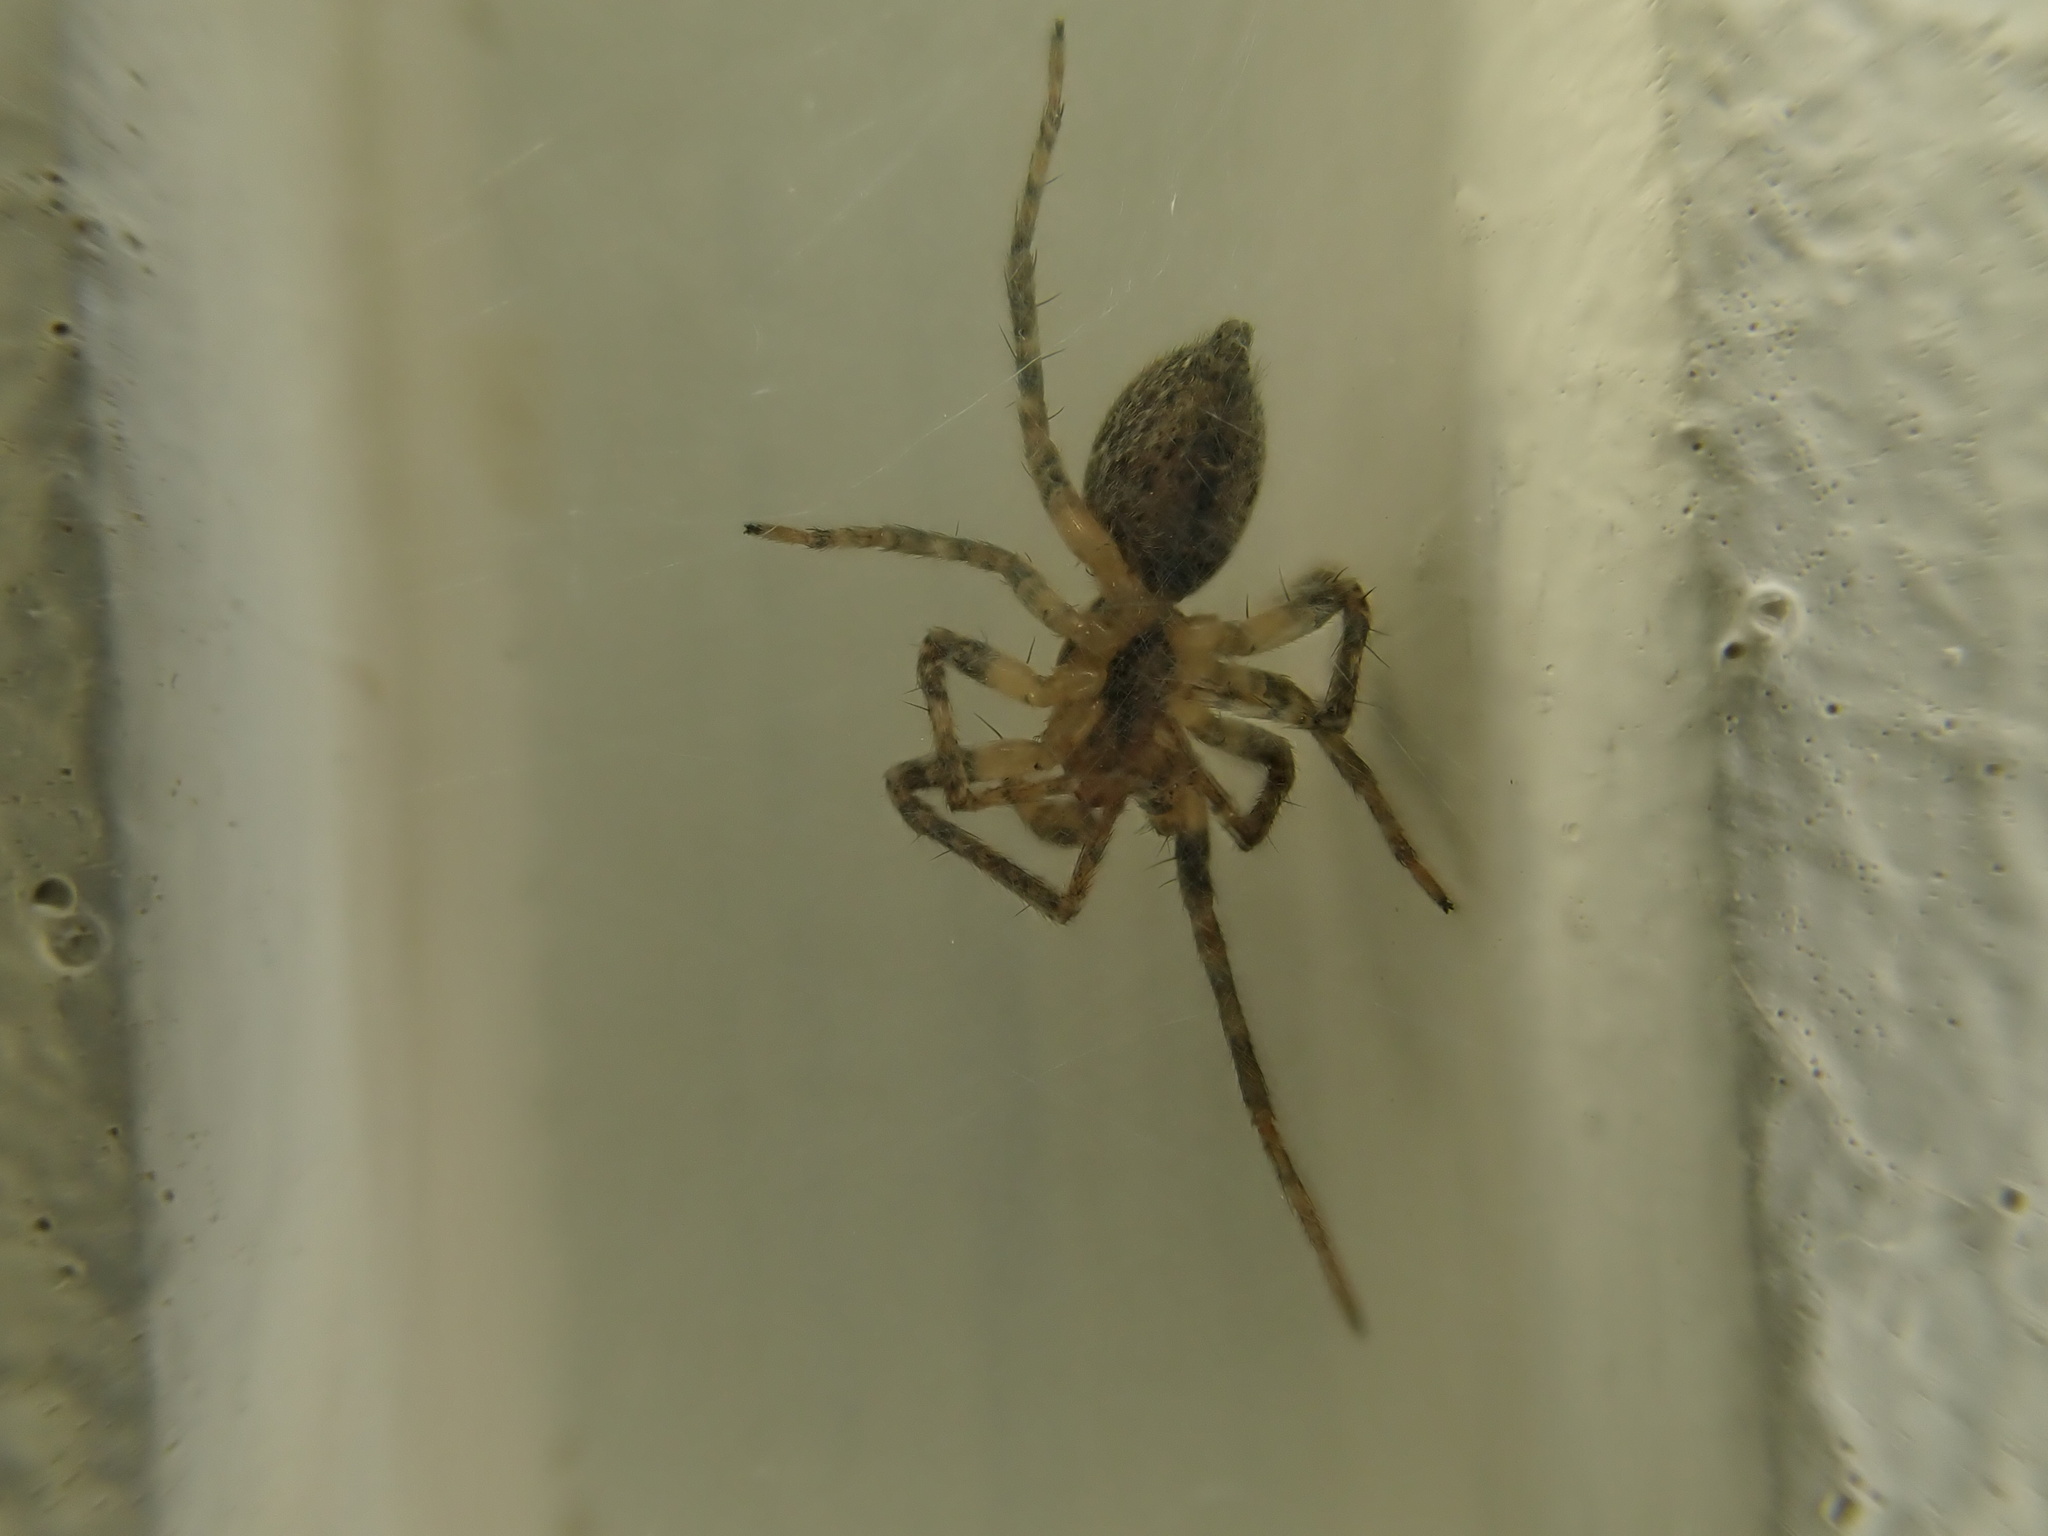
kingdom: Animalia
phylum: Arthropoda
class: Arachnida
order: Araneae
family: Anyphaenidae
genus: Anyphaena
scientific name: Anyphaena accentuata
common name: Buzzing spider
